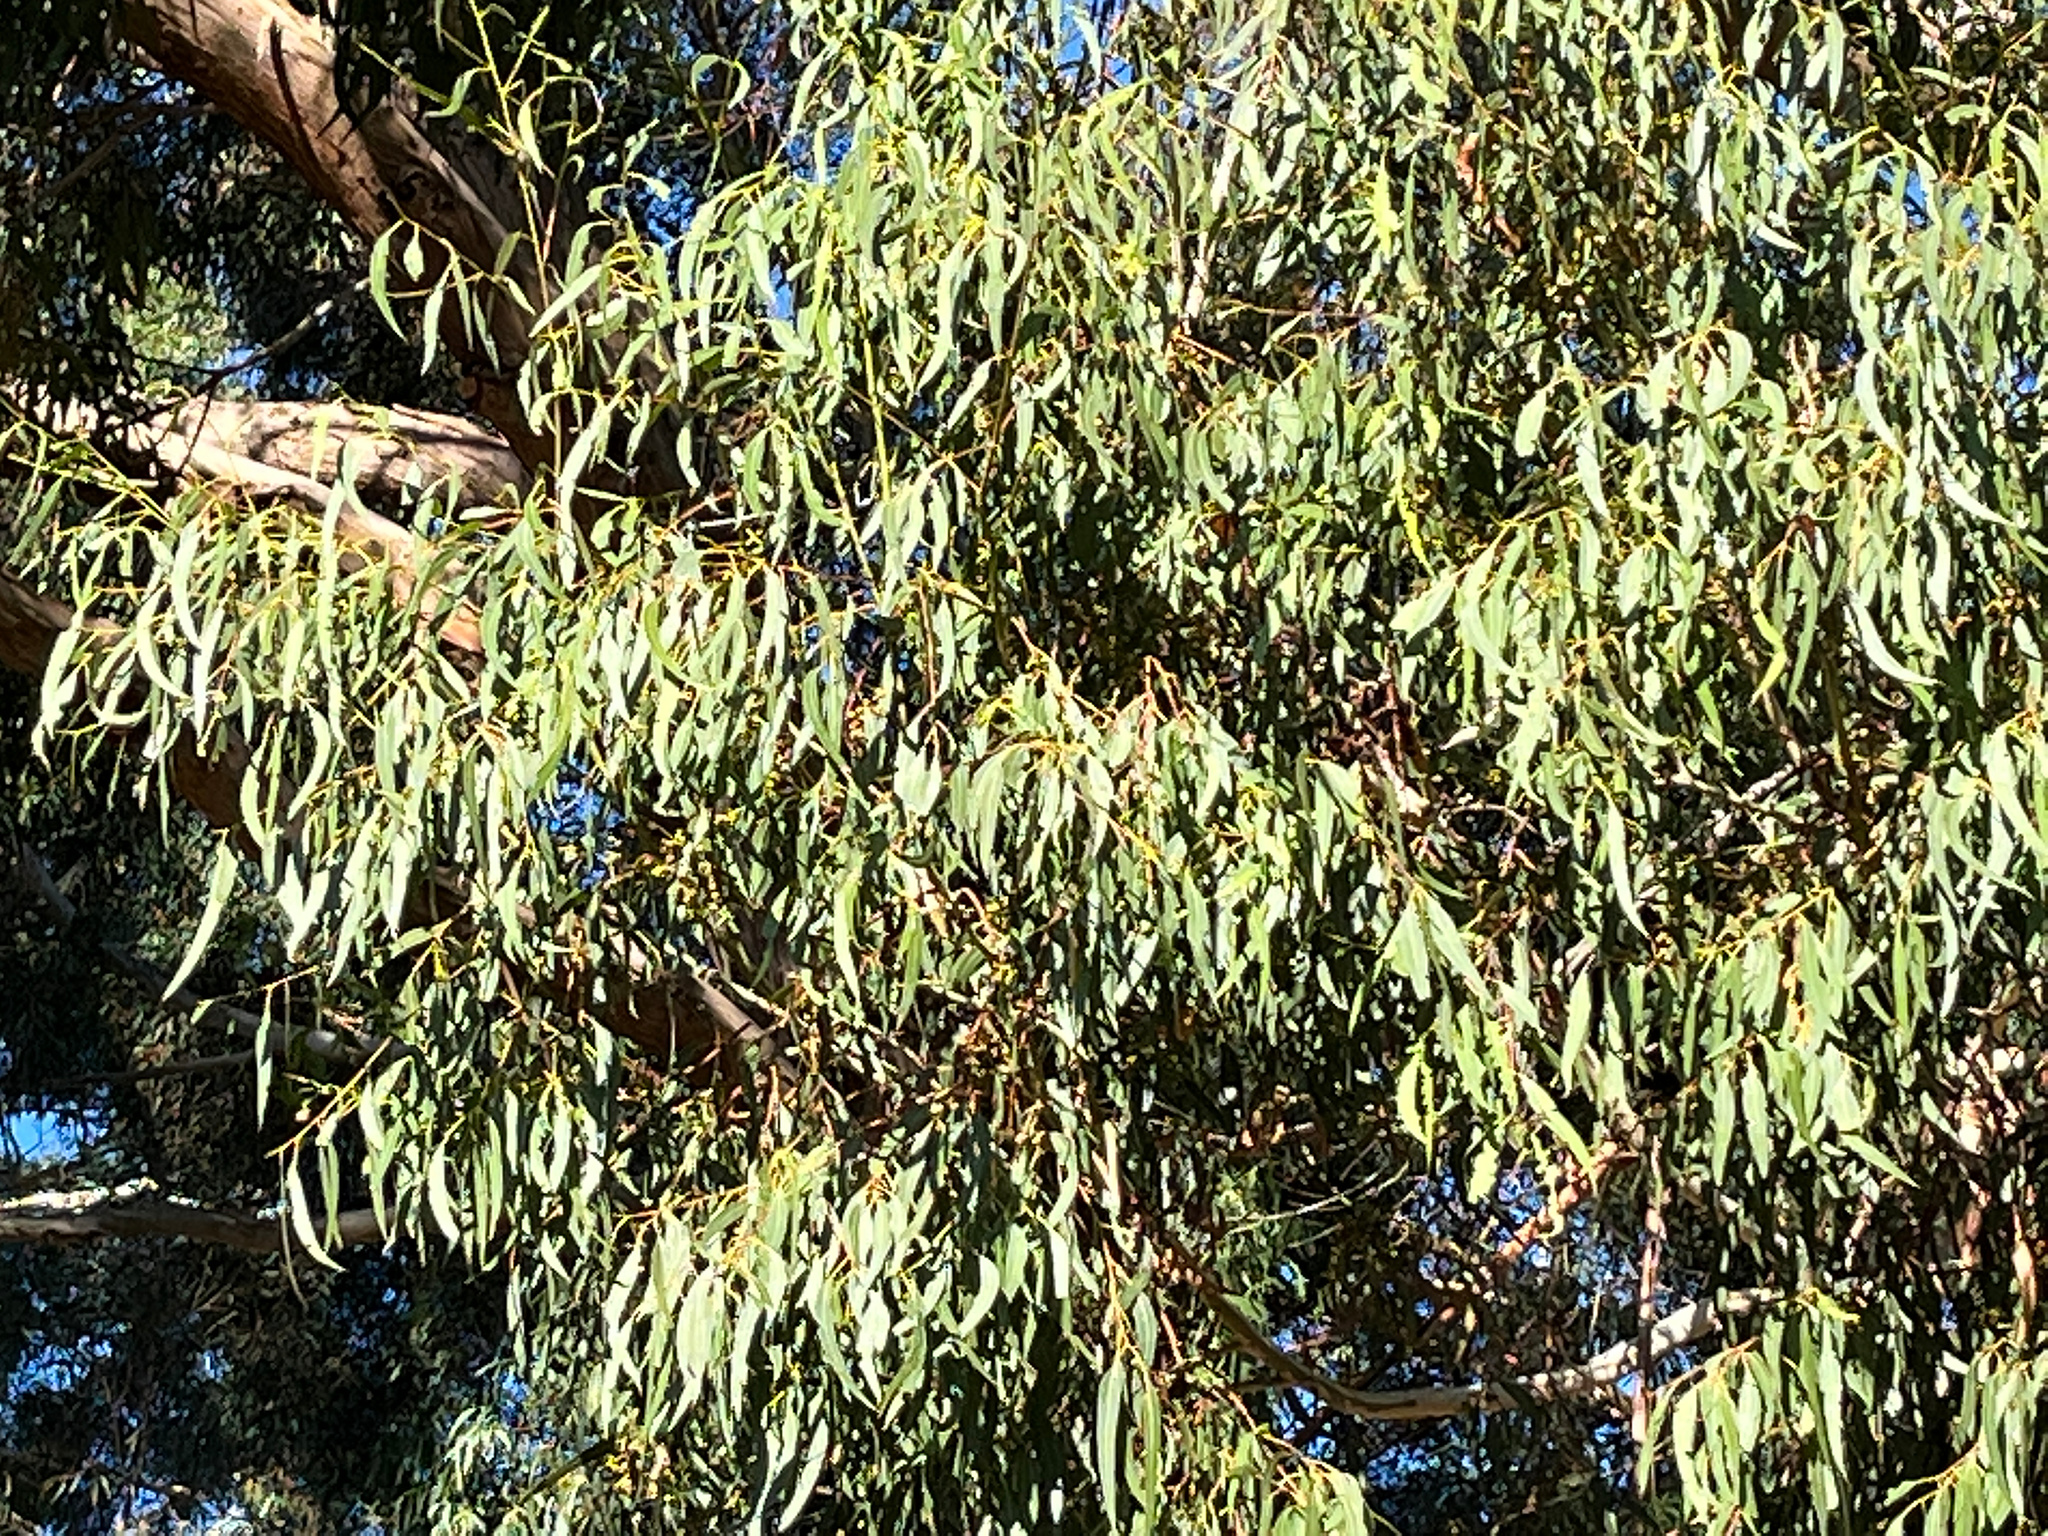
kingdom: Animalia
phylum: Arthropoda
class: Insecta
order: Lepidoptera
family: Nymphalidae
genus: Danaus
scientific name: Danaus plexippus
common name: Monarch
